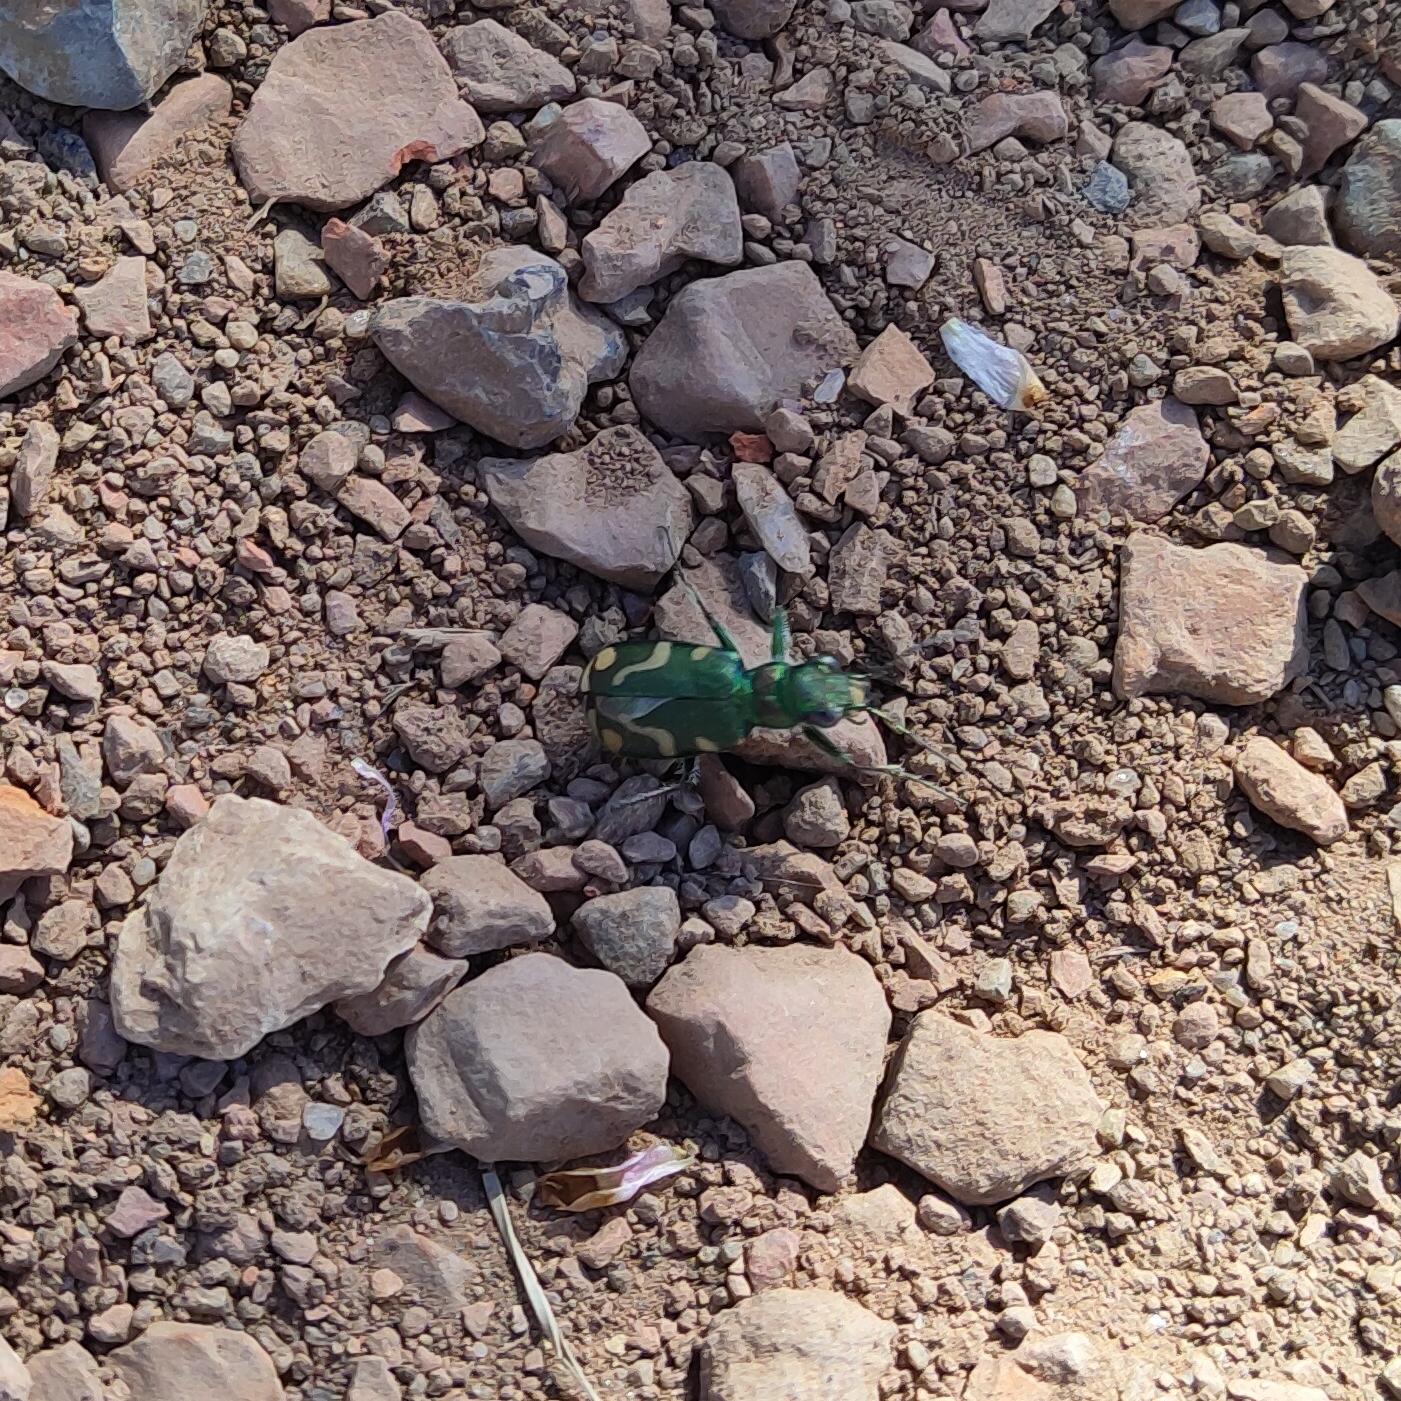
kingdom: Animalia
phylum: Arthropoda
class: Insecta
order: Coleoptera
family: Carabidae
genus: Cicindela
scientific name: Cicindela decemnotata
